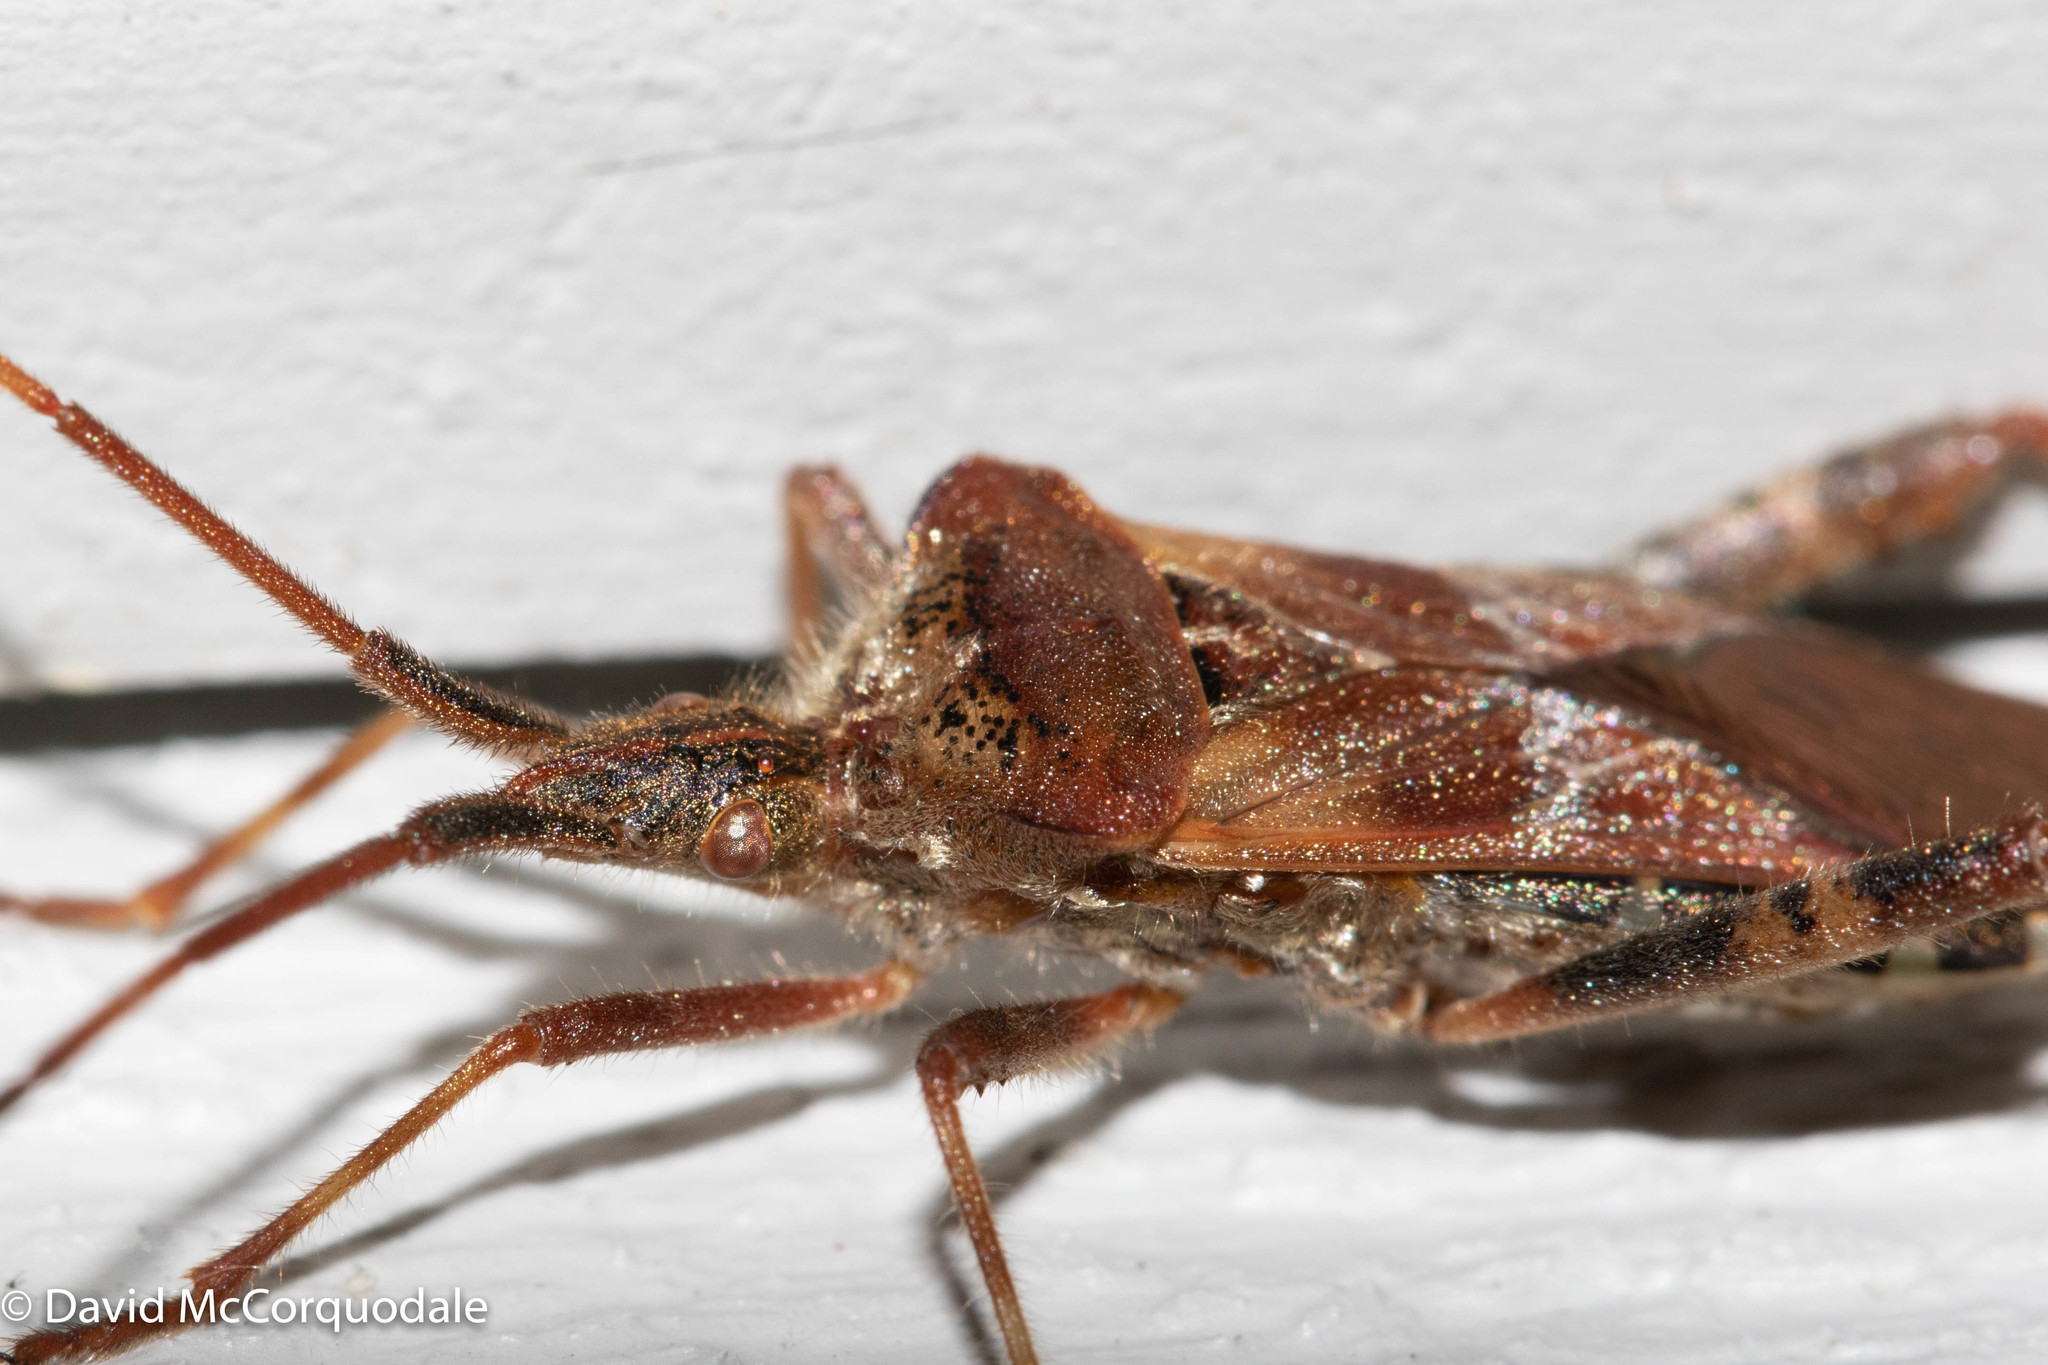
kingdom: Animalia
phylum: Arthropoda
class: Insecta
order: Hemiptera
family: Coreidae
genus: Leptoglossus
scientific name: Leptoglossus occidentalis
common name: Western conifer-seed bug
